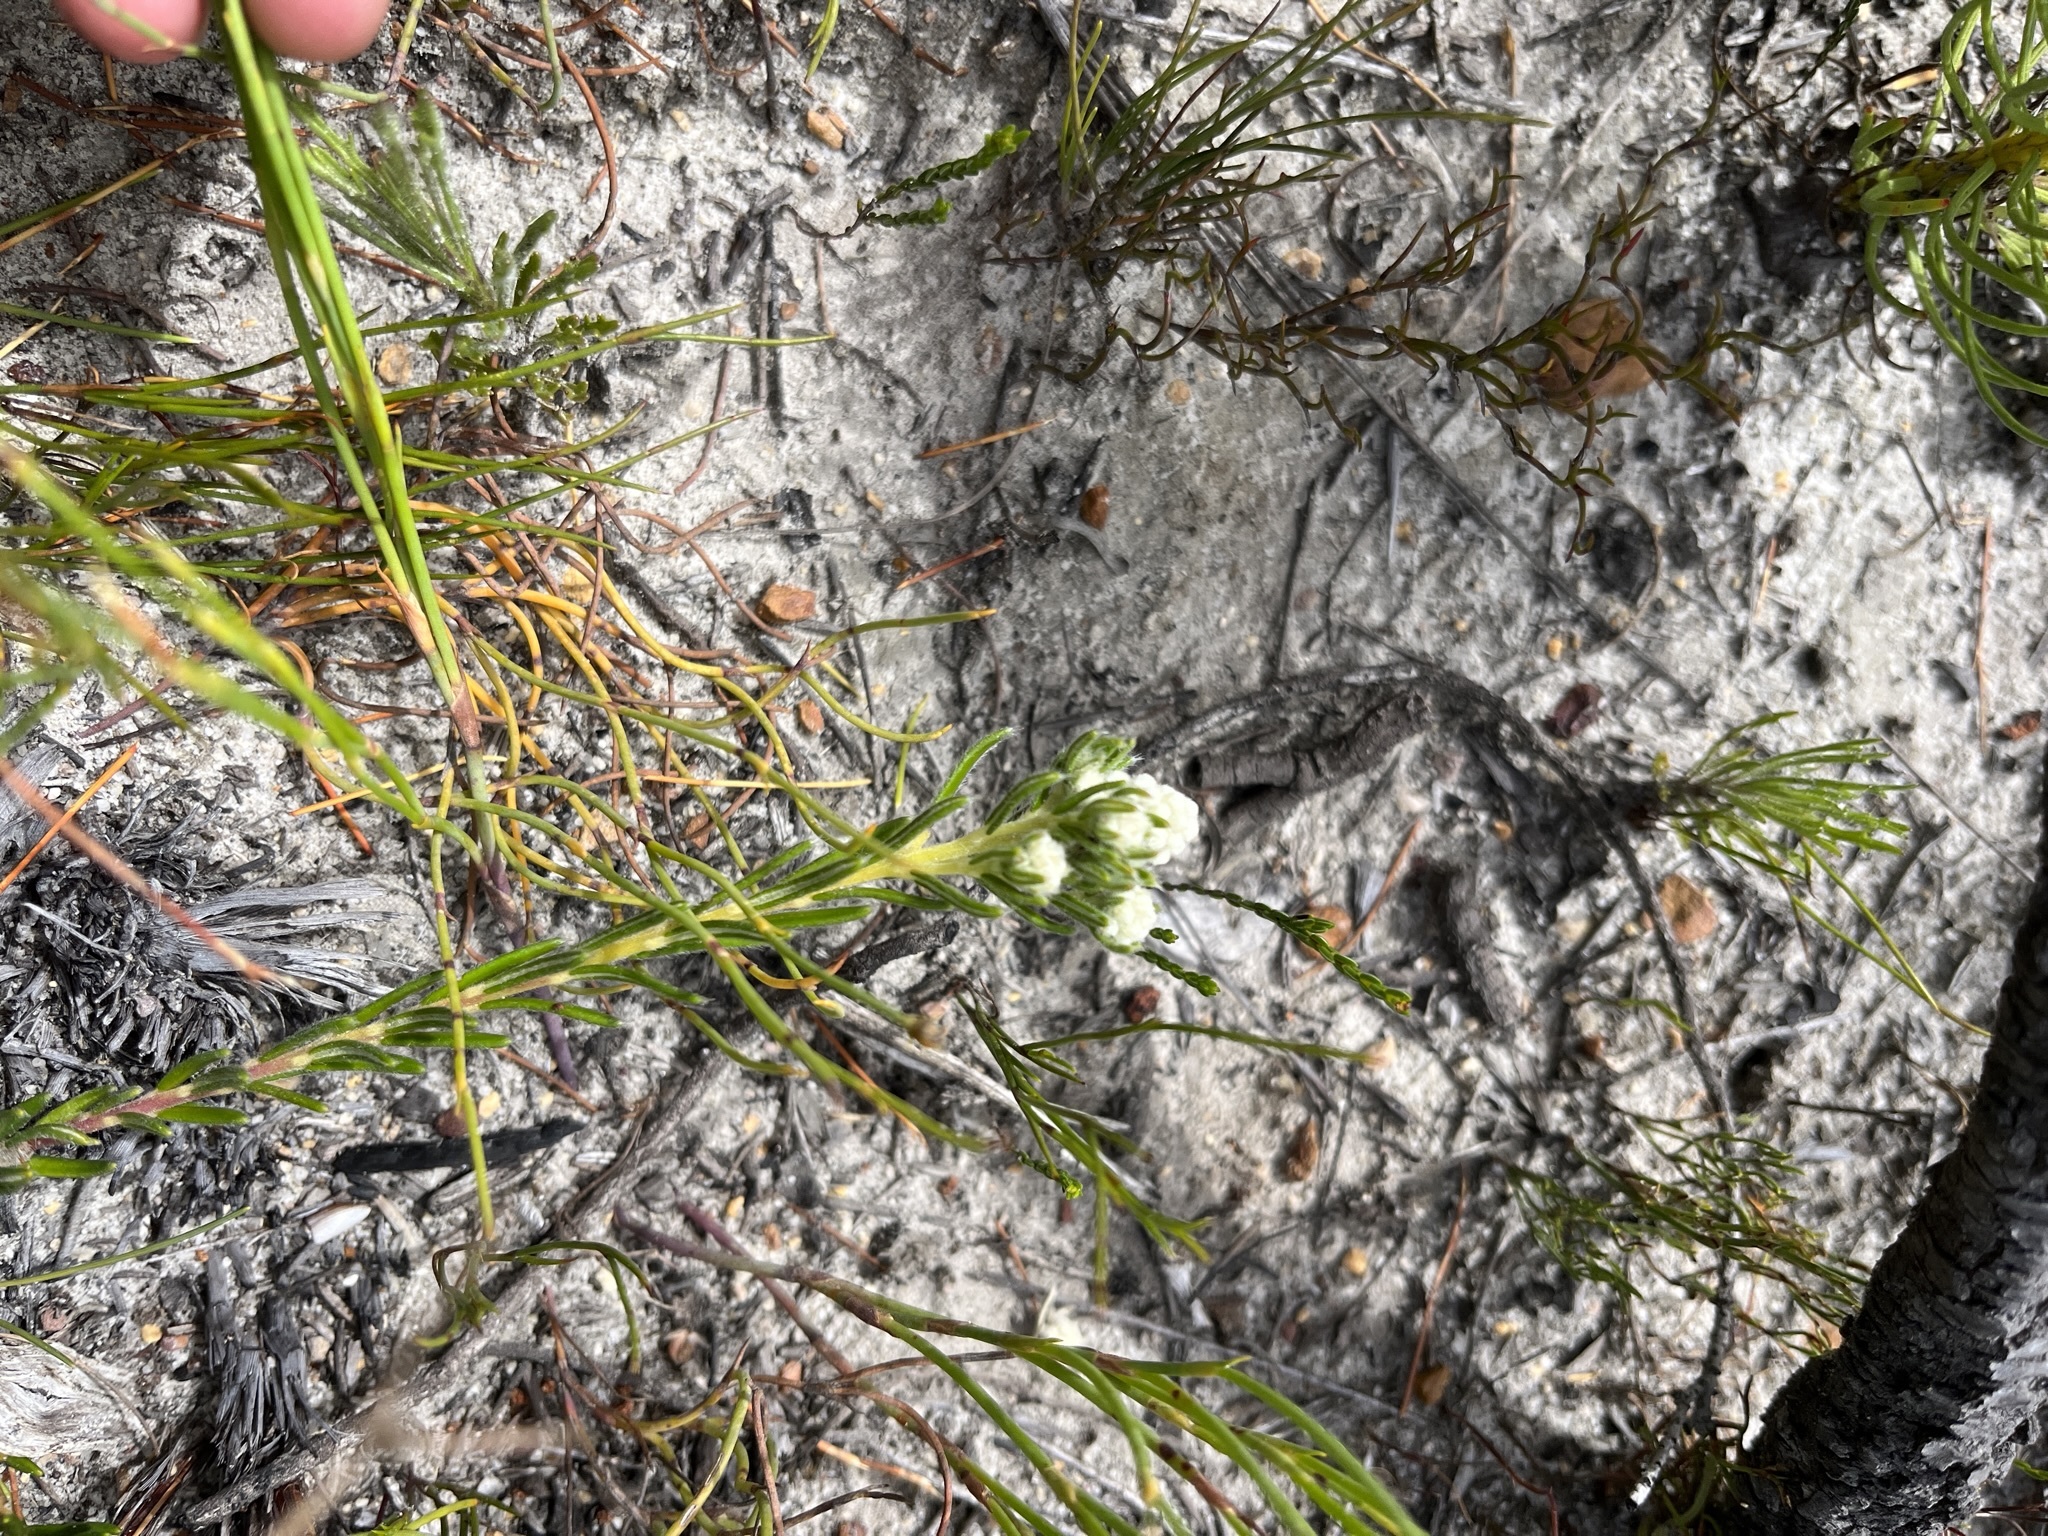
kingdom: Plantae
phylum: Tracheophyta
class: Magnoliopsida
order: Rosales
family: Rhamnaceae
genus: Phylica
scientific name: Phylica imberbis
